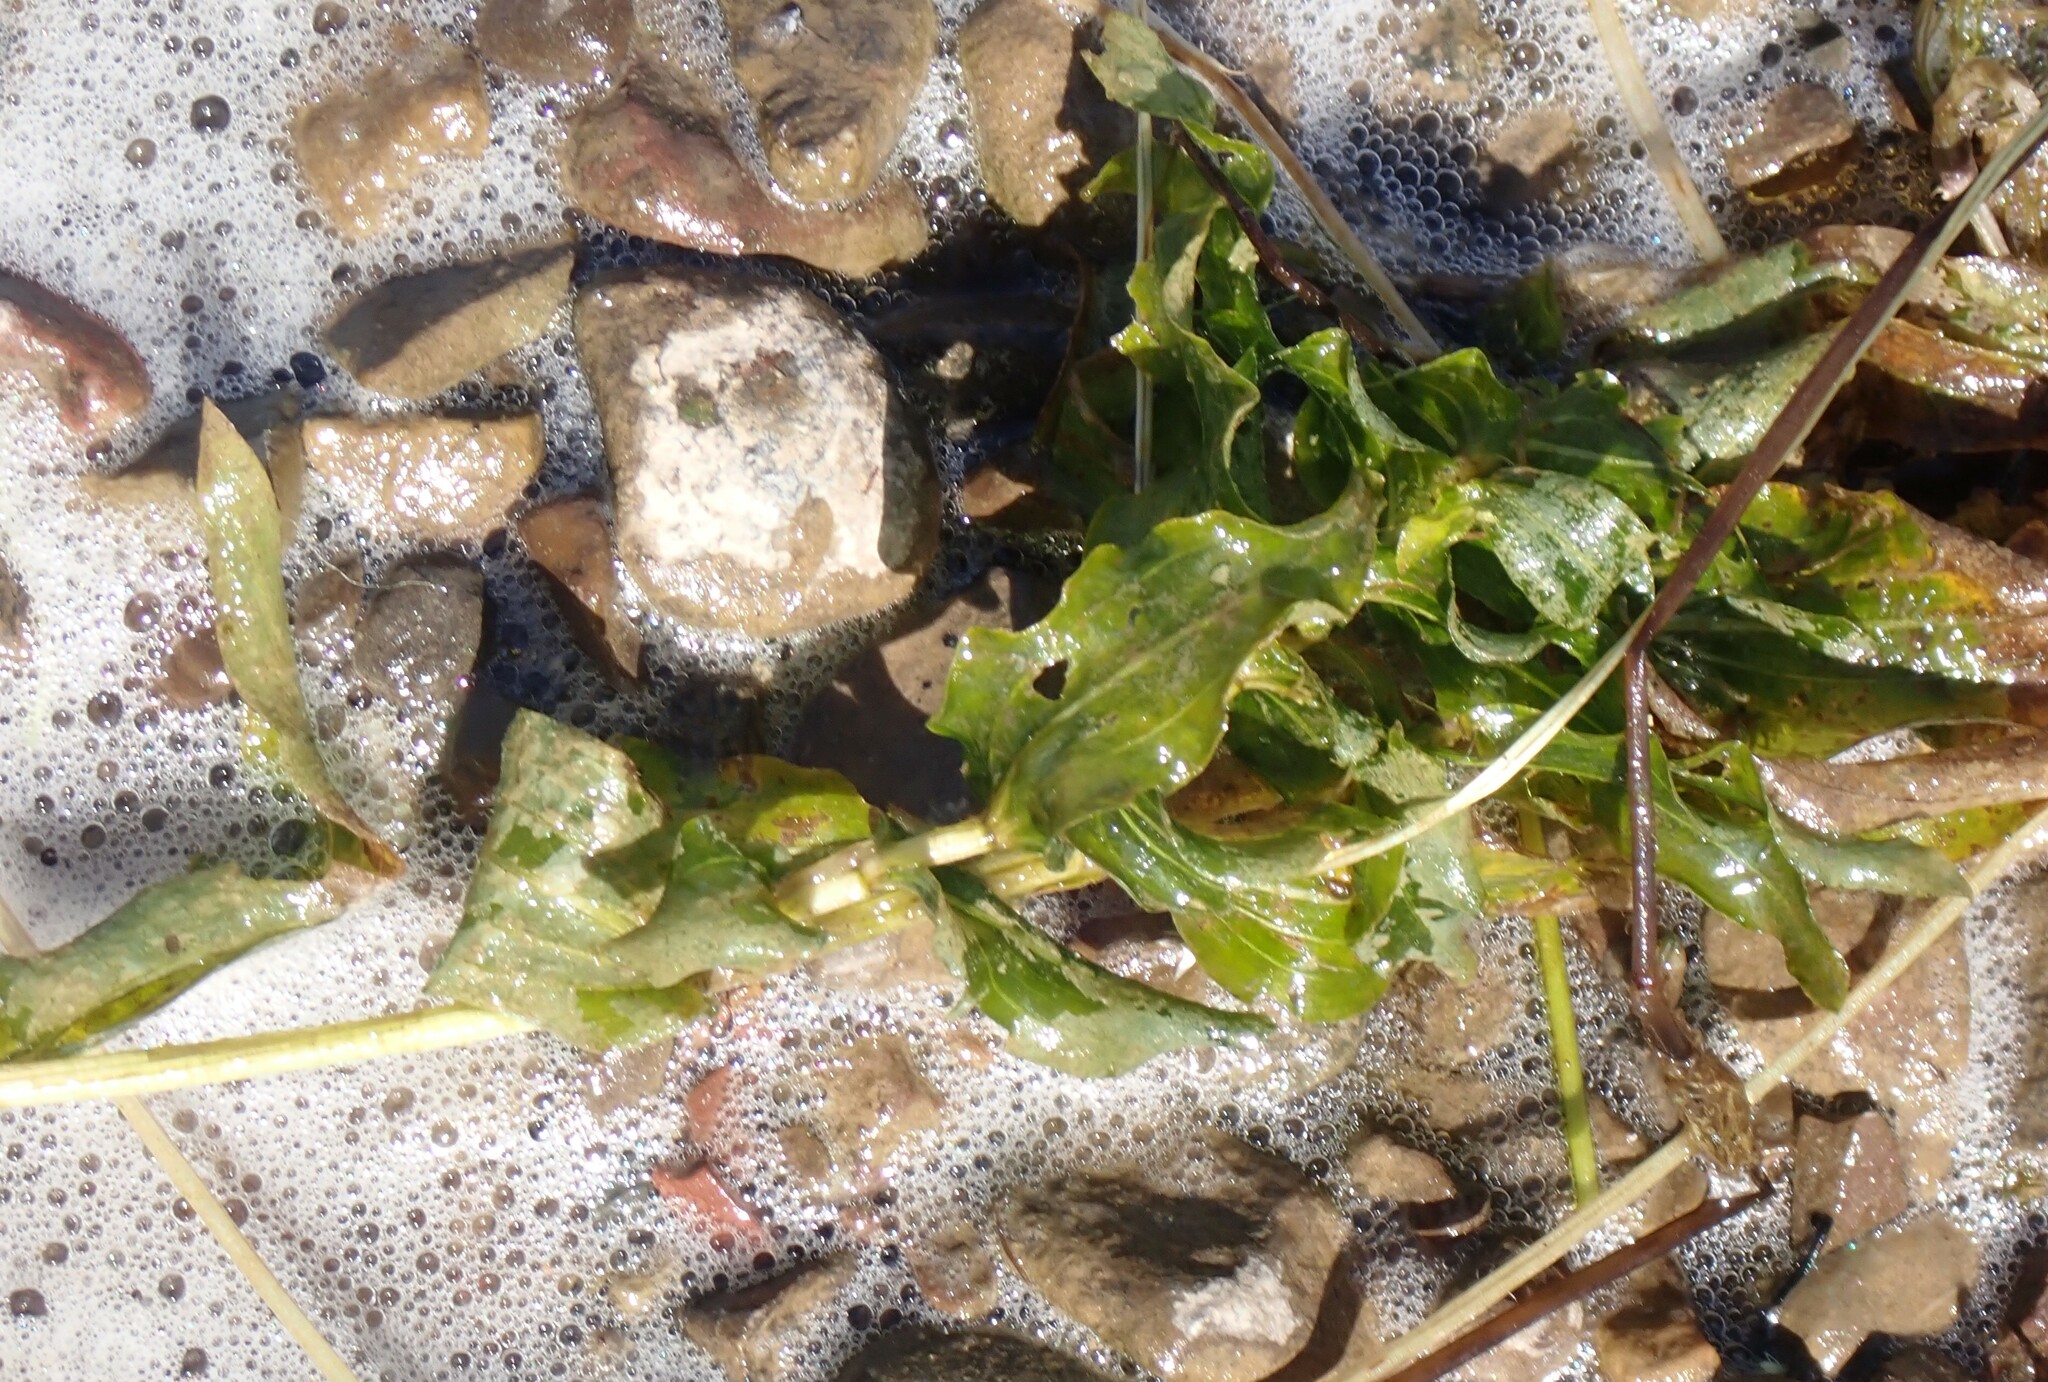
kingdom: Plantae
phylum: Tracheophyta
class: Liliopsida
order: Alismatales
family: Potamogetonaceae
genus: Potamogeton
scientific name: Potamogeton richardsonii
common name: Richardson's pondweed
